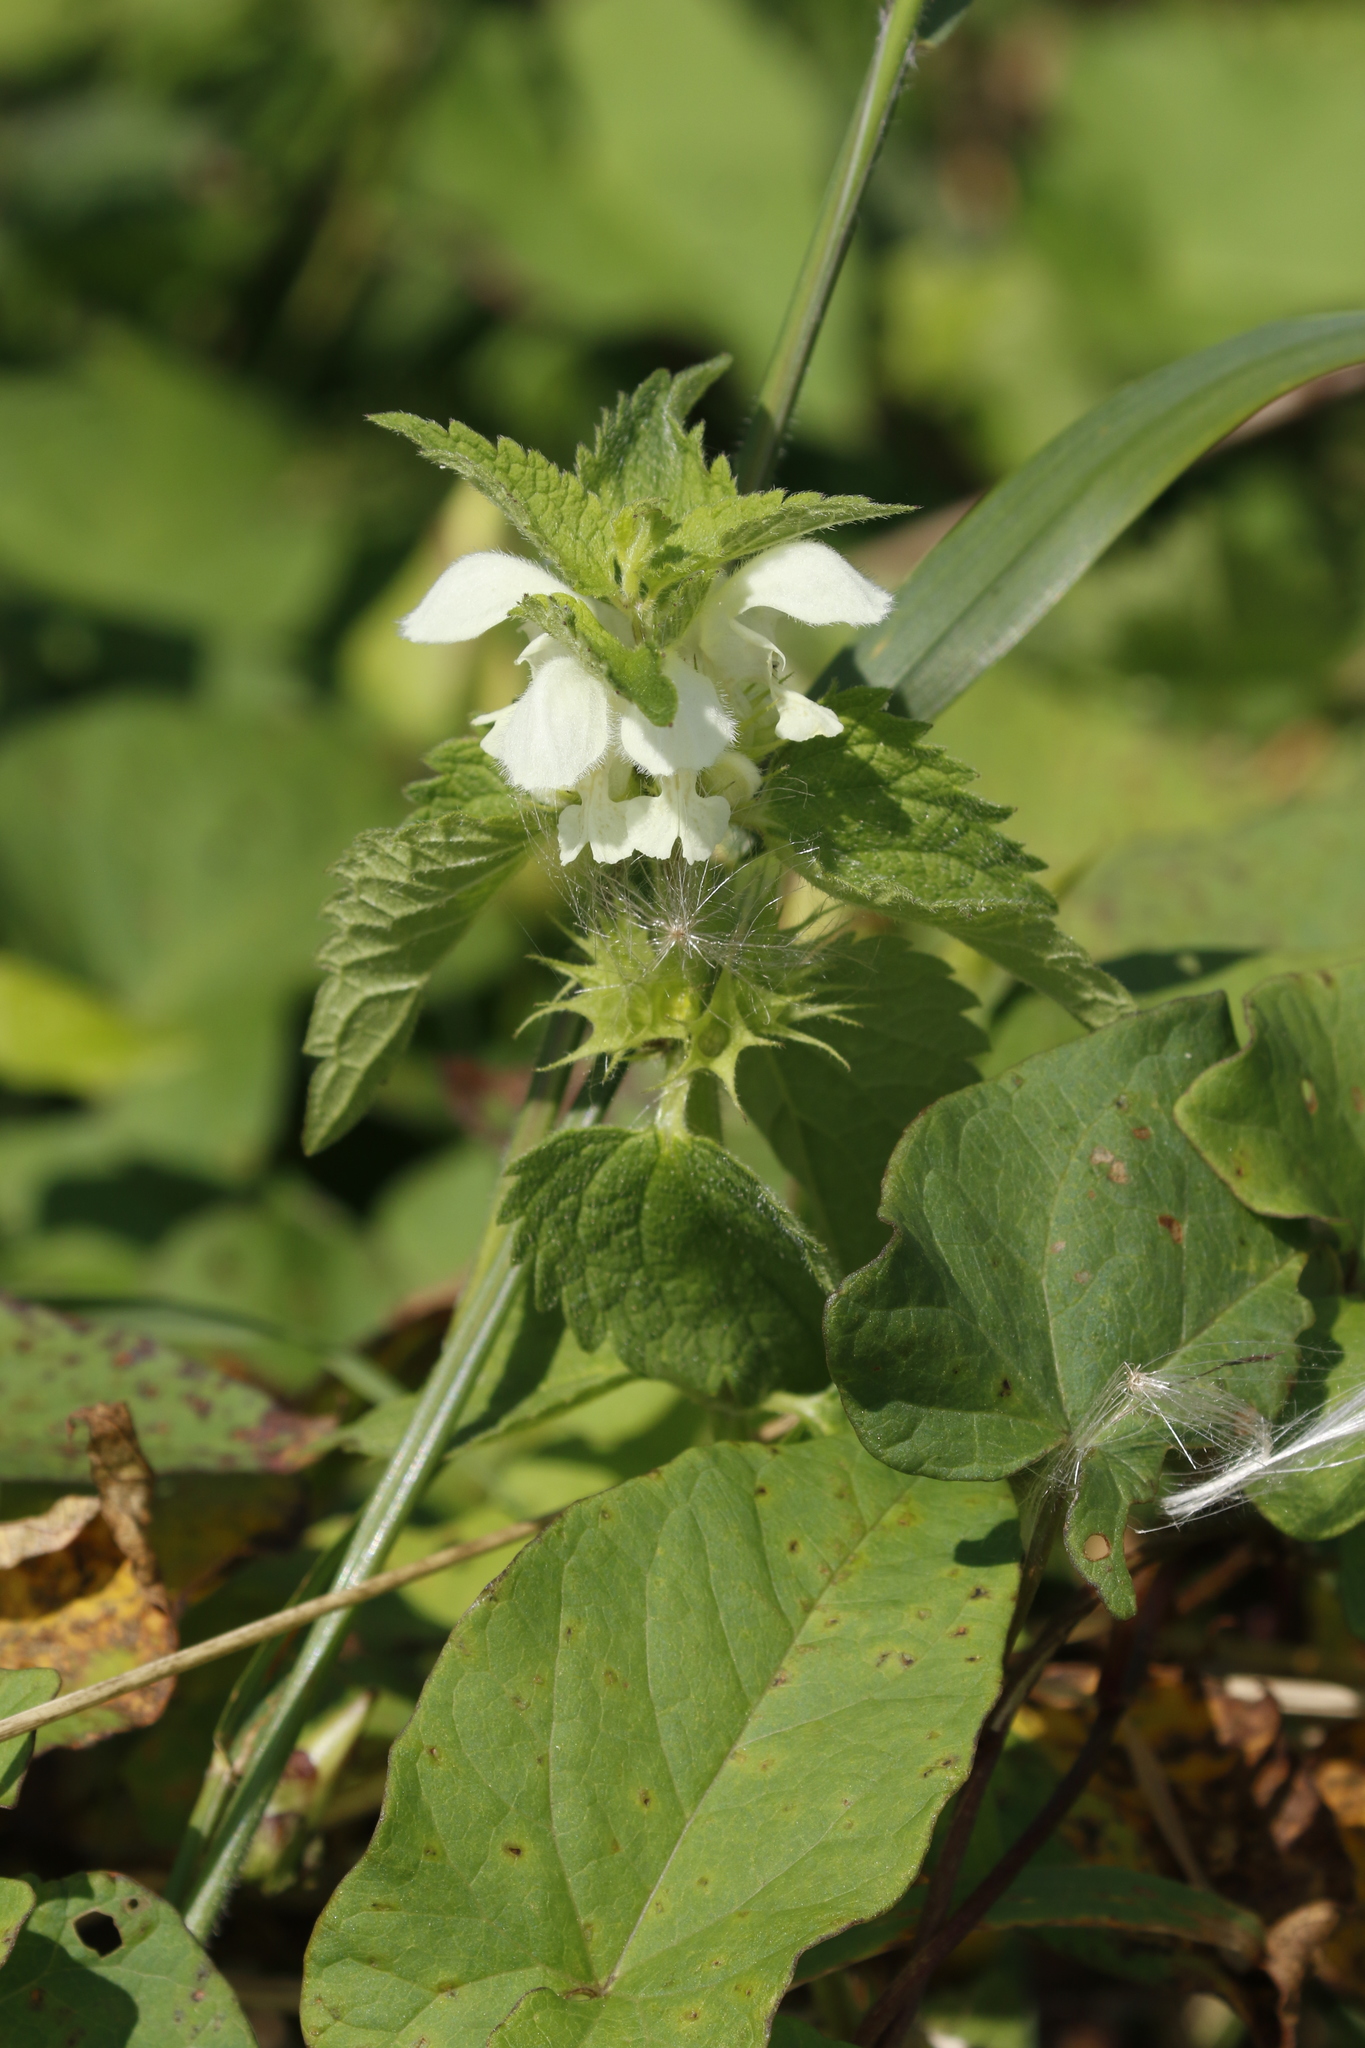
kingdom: Plantae
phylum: Tracheophyta
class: Magnoliopsida
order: Lamiales
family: Lamiaceae
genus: Lamium
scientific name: Lamium album
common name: White dead-nettle
